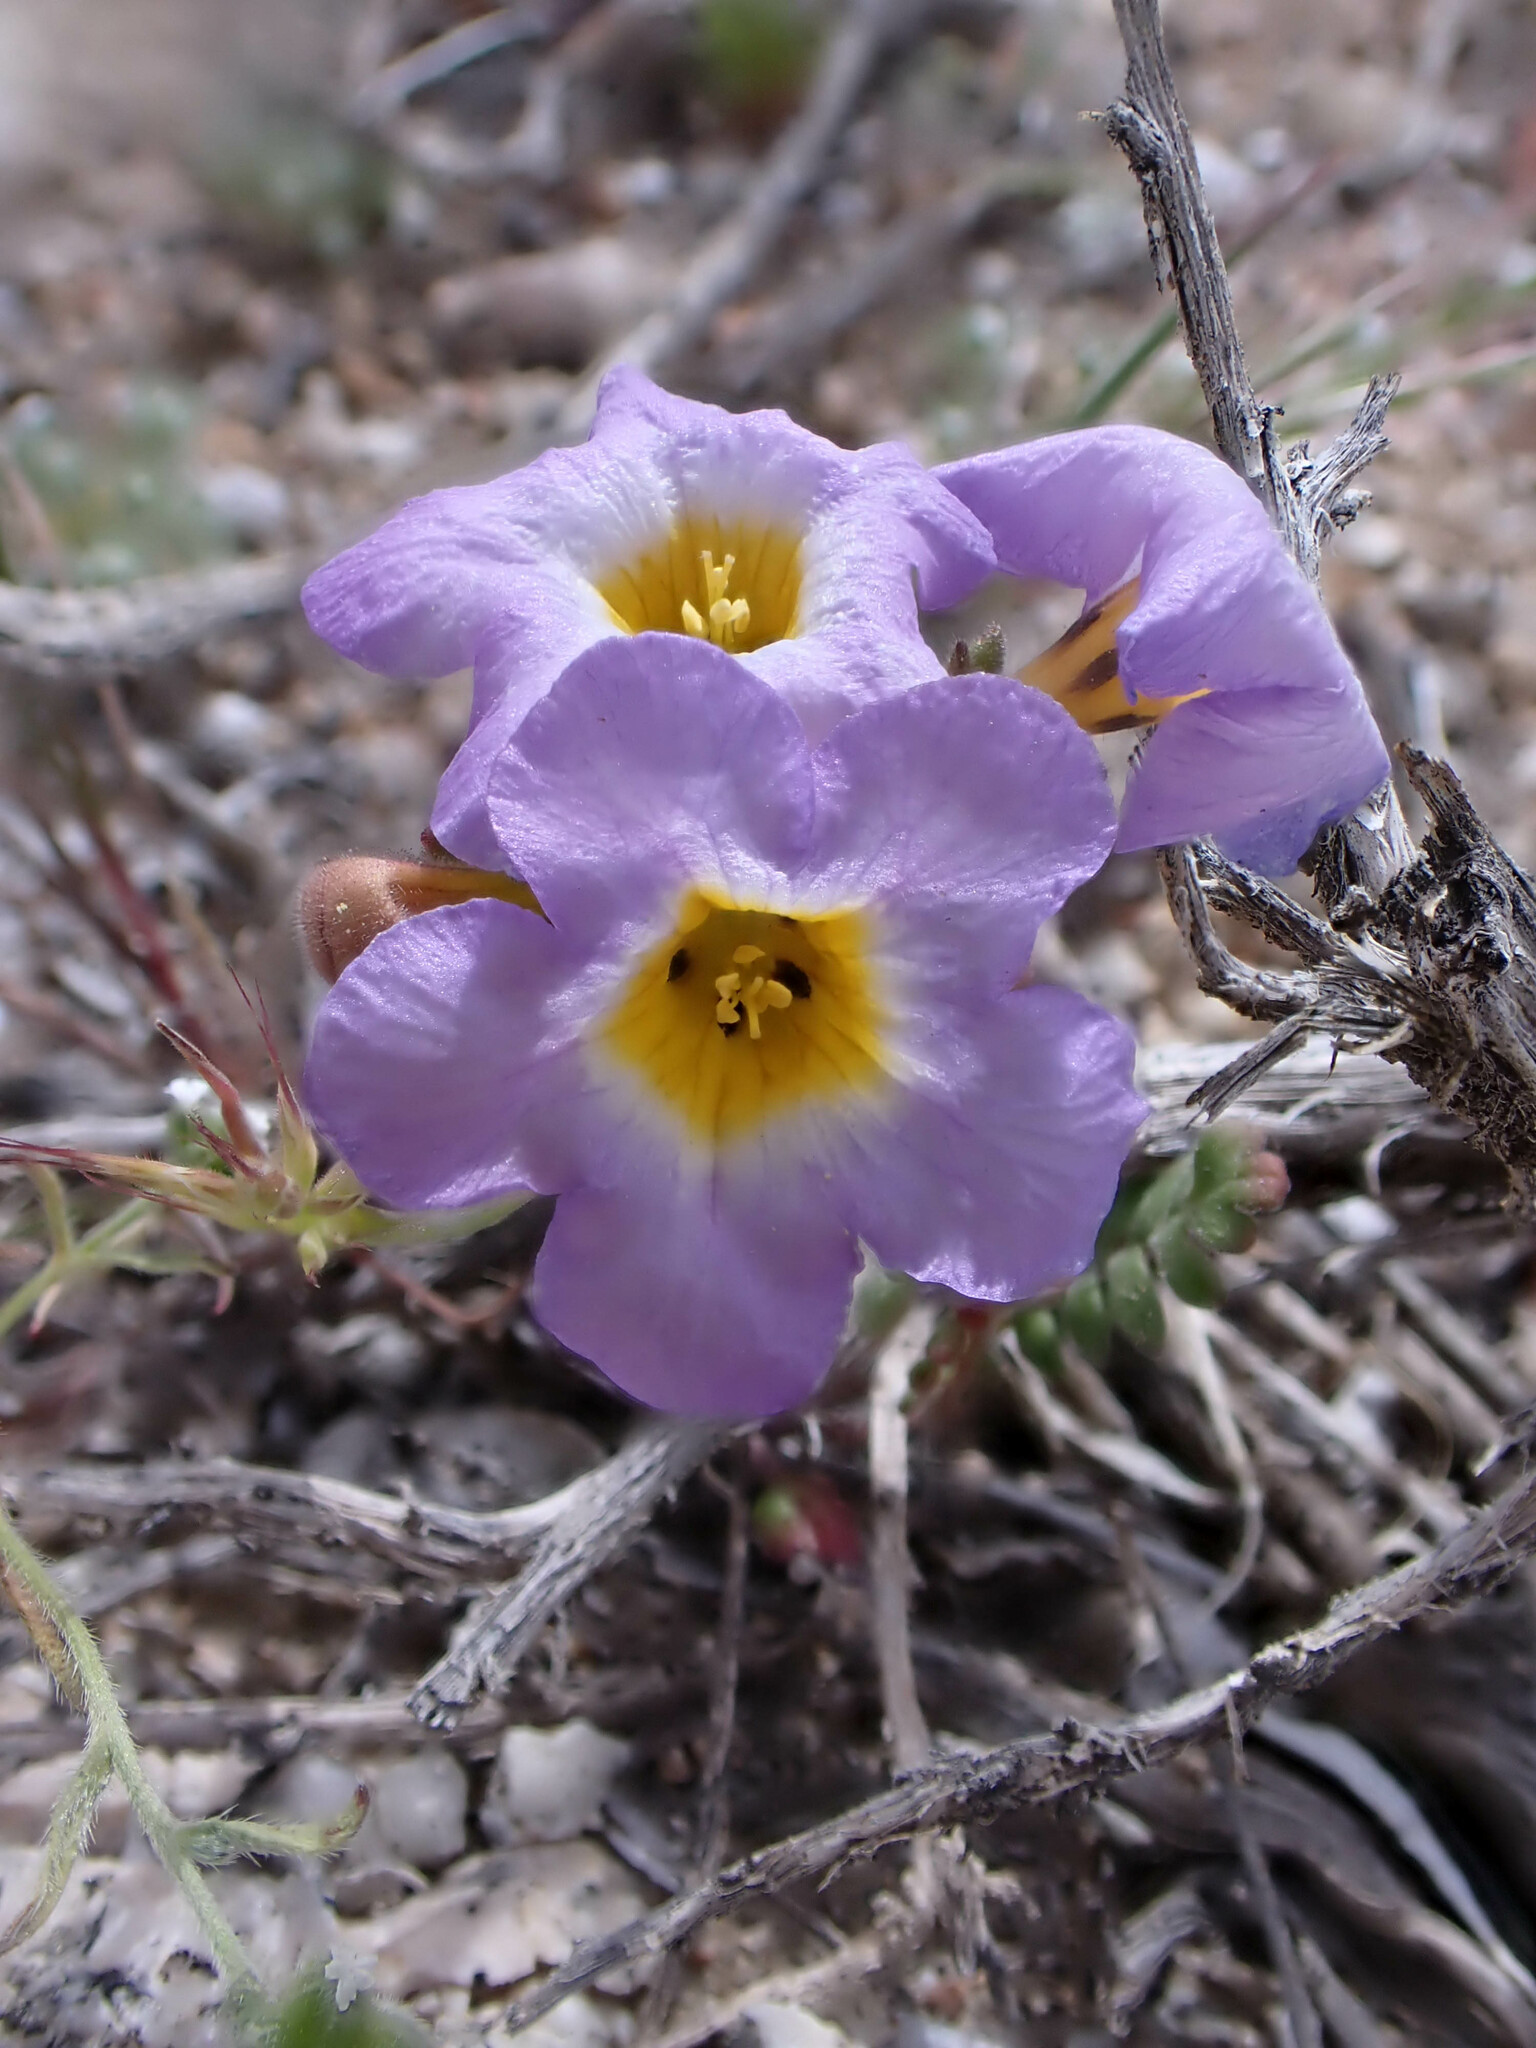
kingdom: Plantae
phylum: Tracheophyta
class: Magnoliopsida
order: Boraginales
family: Hydrophyllaceae
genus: Phacelia
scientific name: Phacelia fremontii
